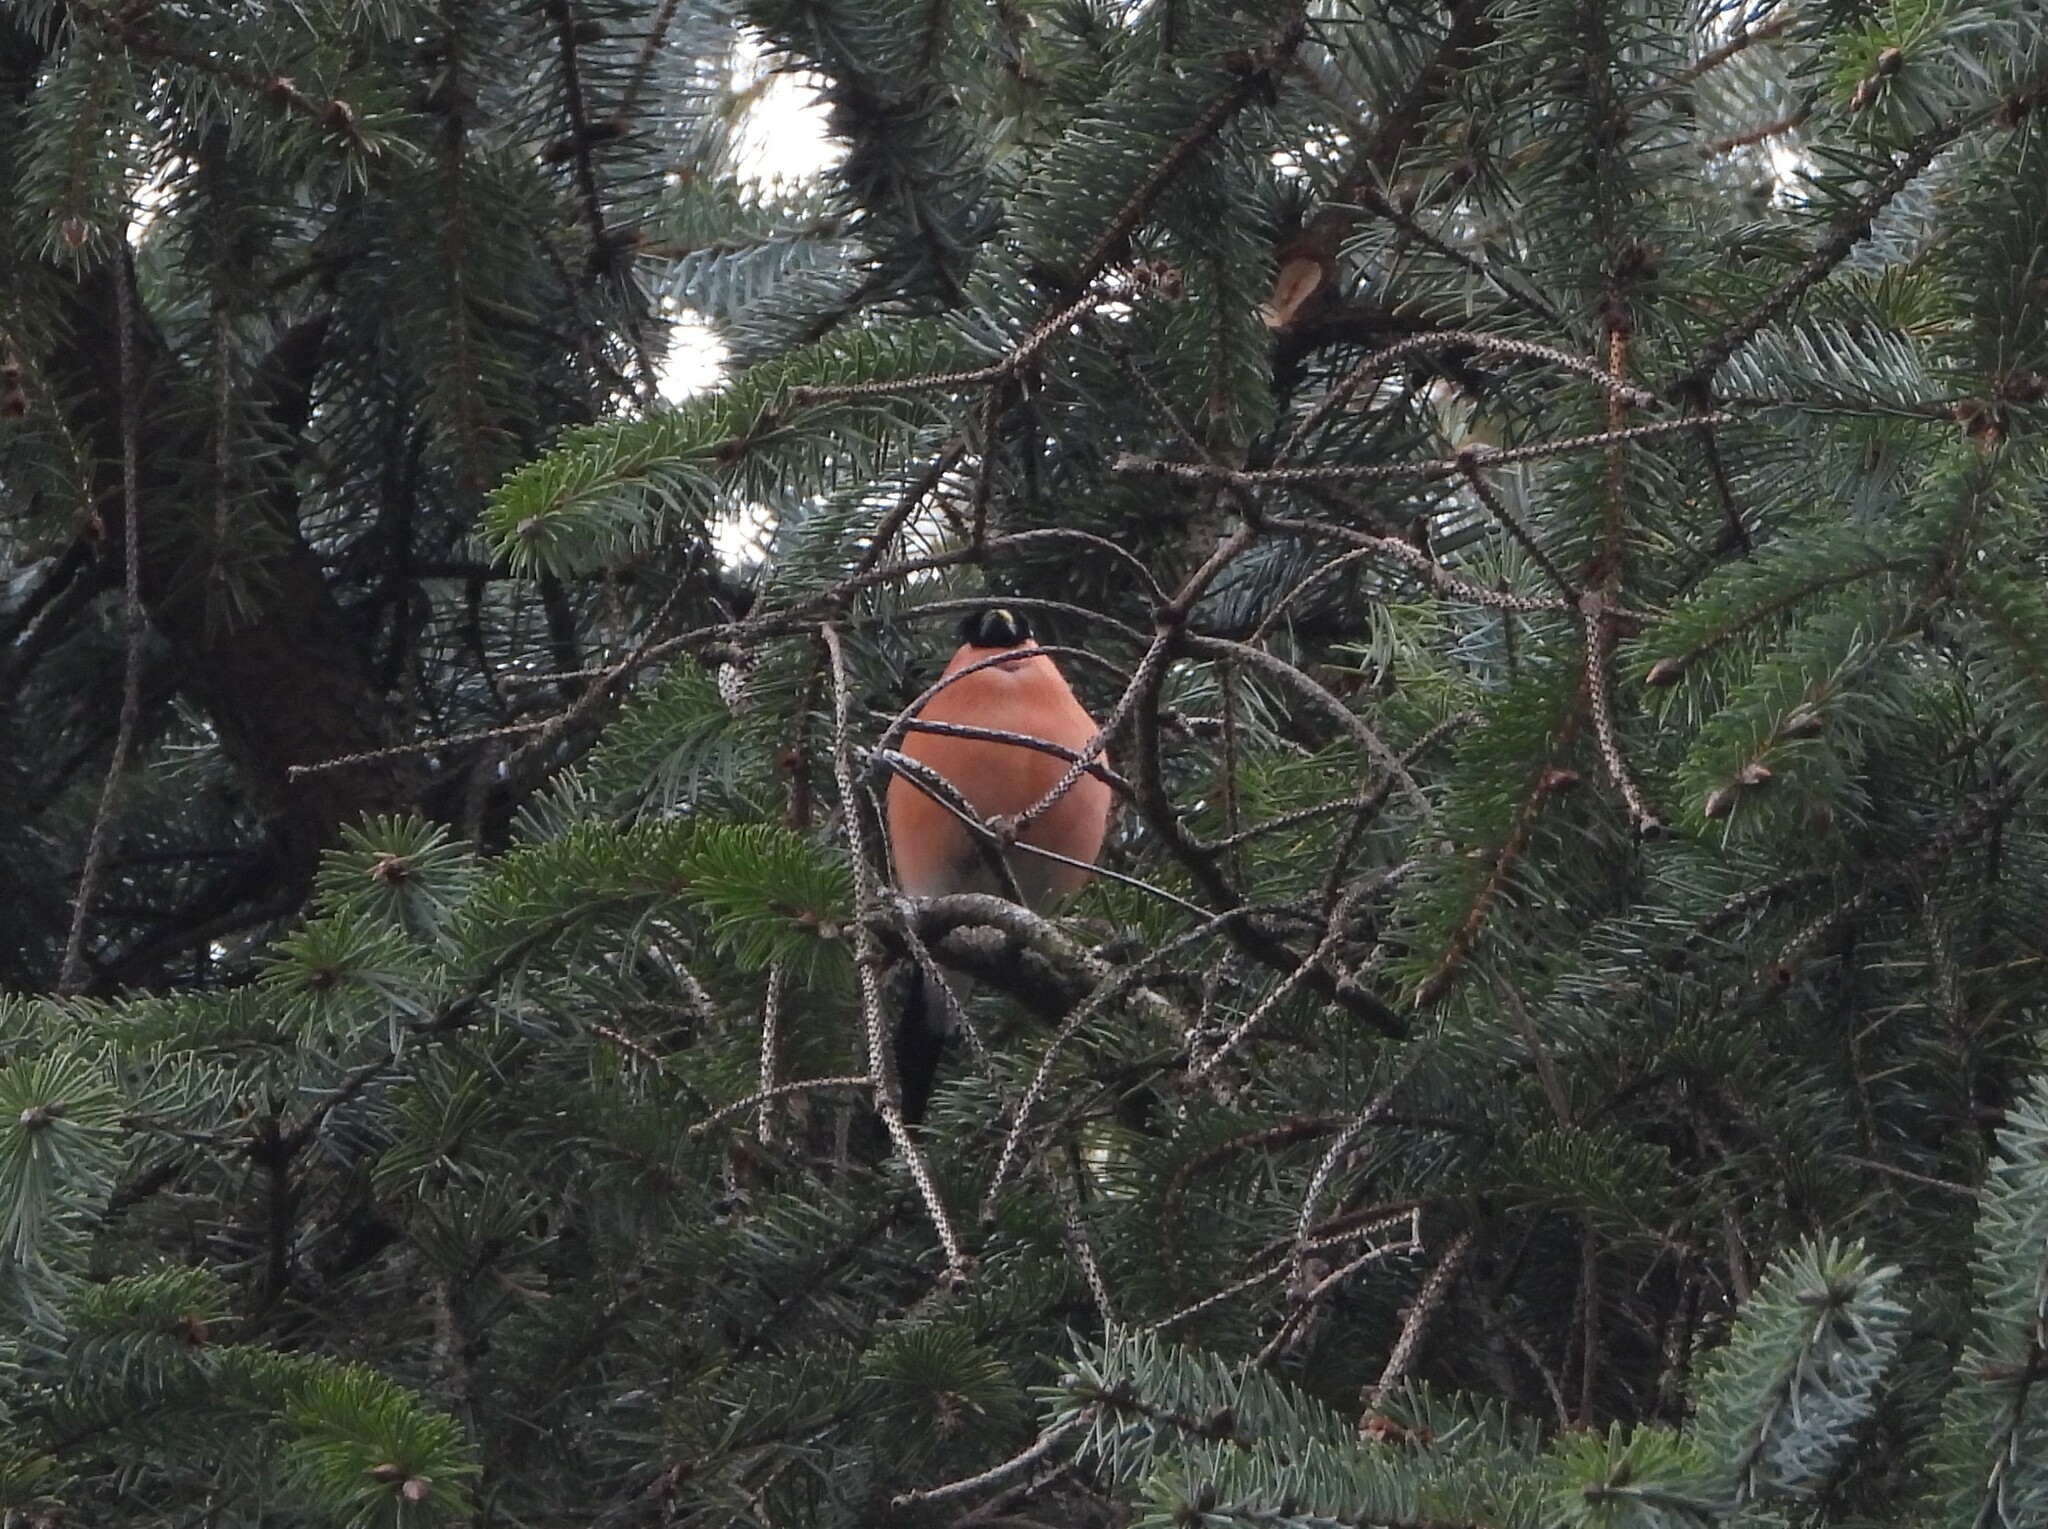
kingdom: Animalia
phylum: Chordata
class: Aves
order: Passeriformes
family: Fringillidae
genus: Pyrrhula
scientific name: Pyrrhula pyrrhula
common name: Eurasian bullfinch
